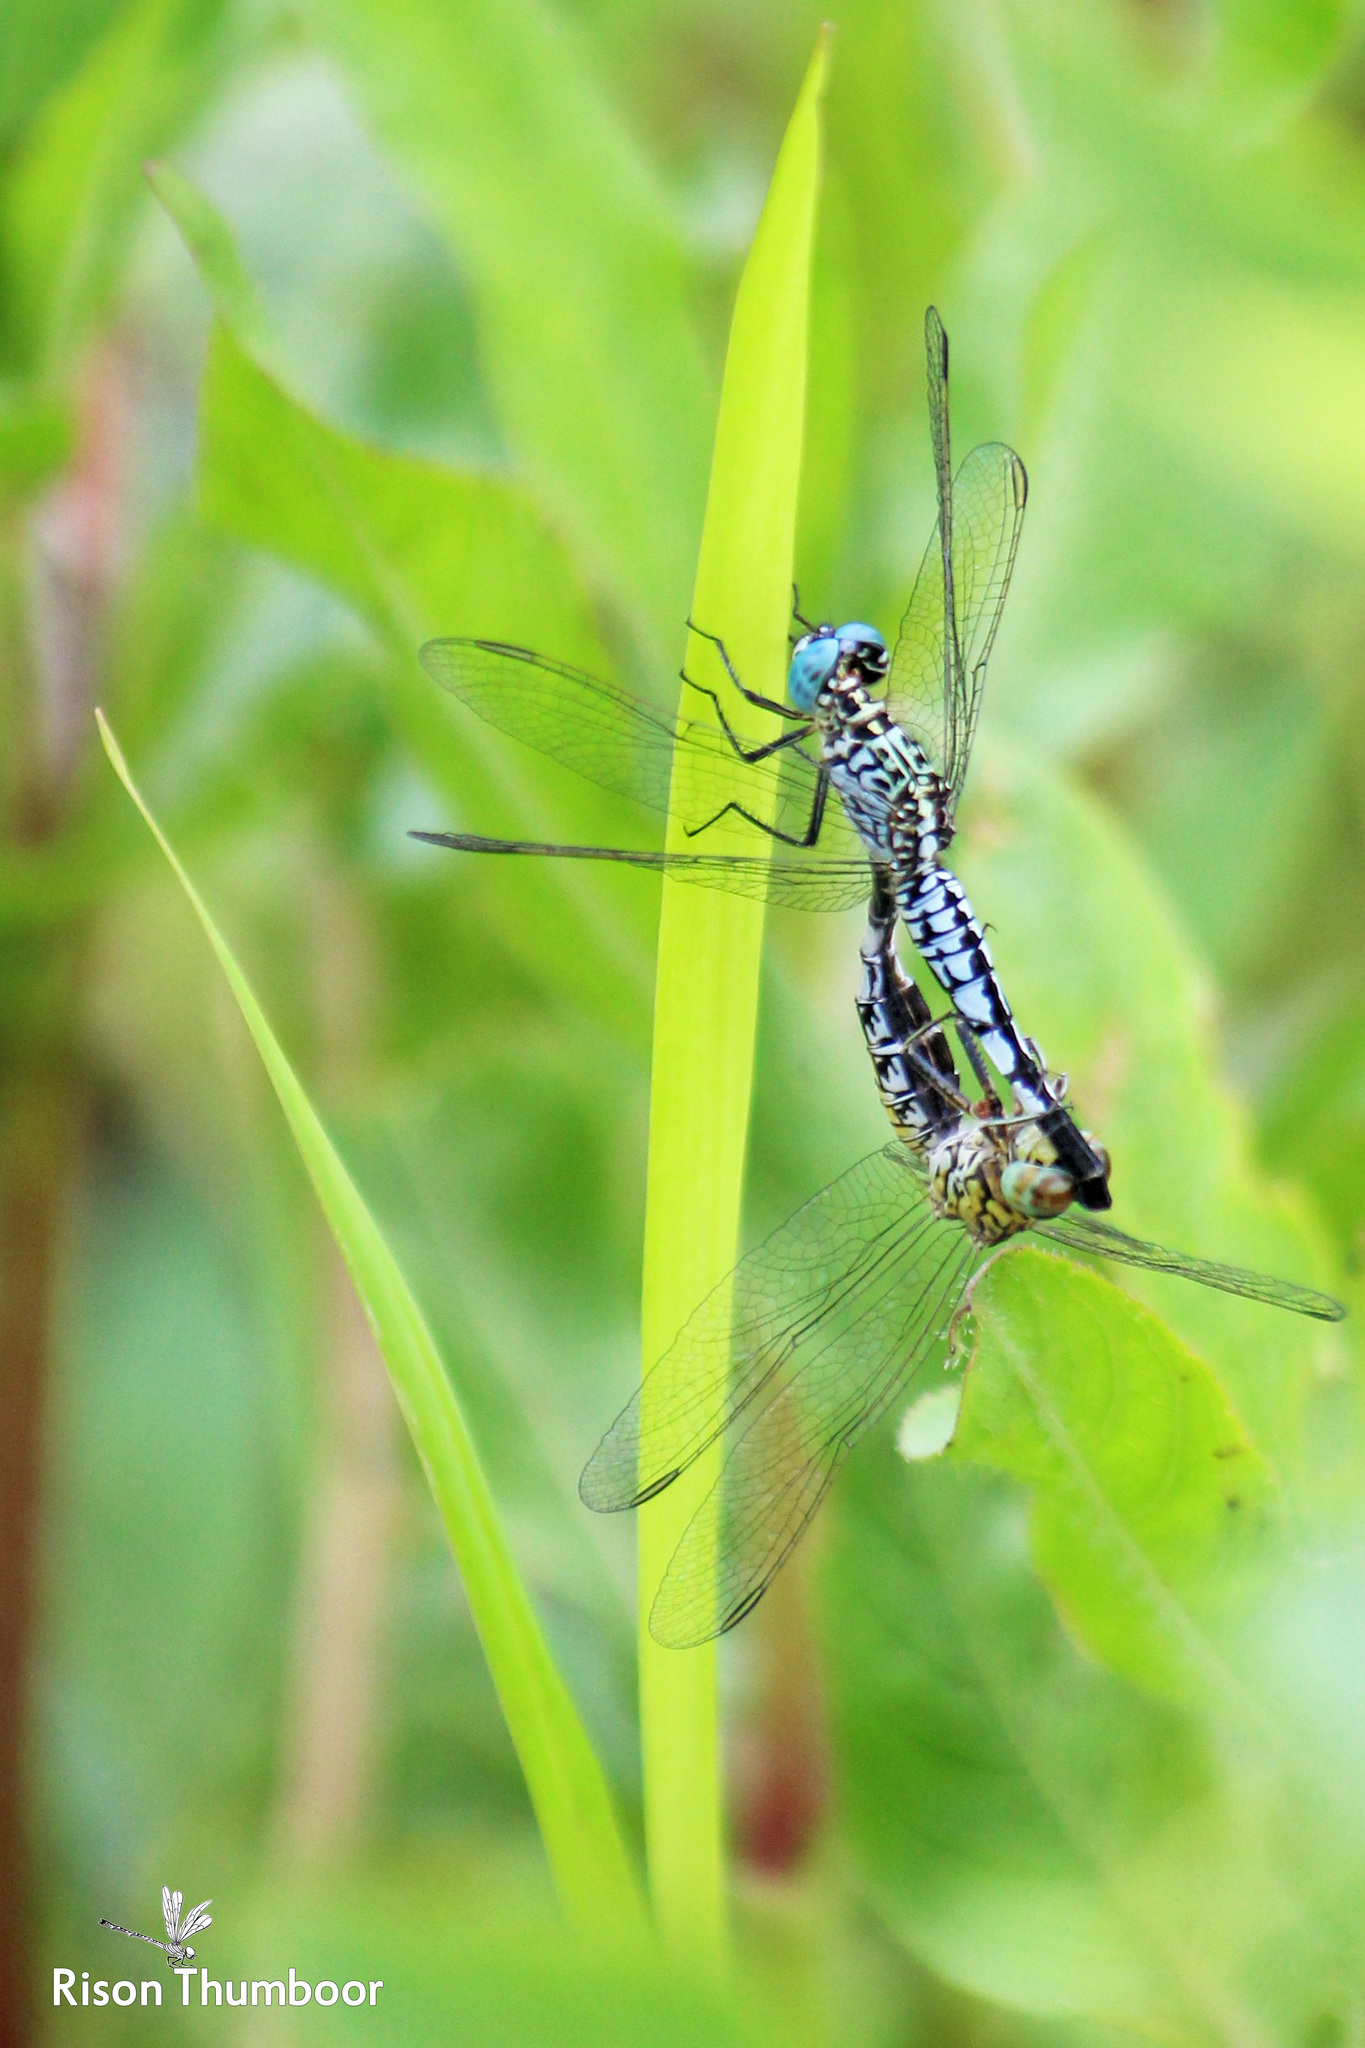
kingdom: Animalia
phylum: Arthropoda
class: Insecta
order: Odonata
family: Libellulidae
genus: Acisoma
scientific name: Acisoma panorpoides
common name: Asian pintail
